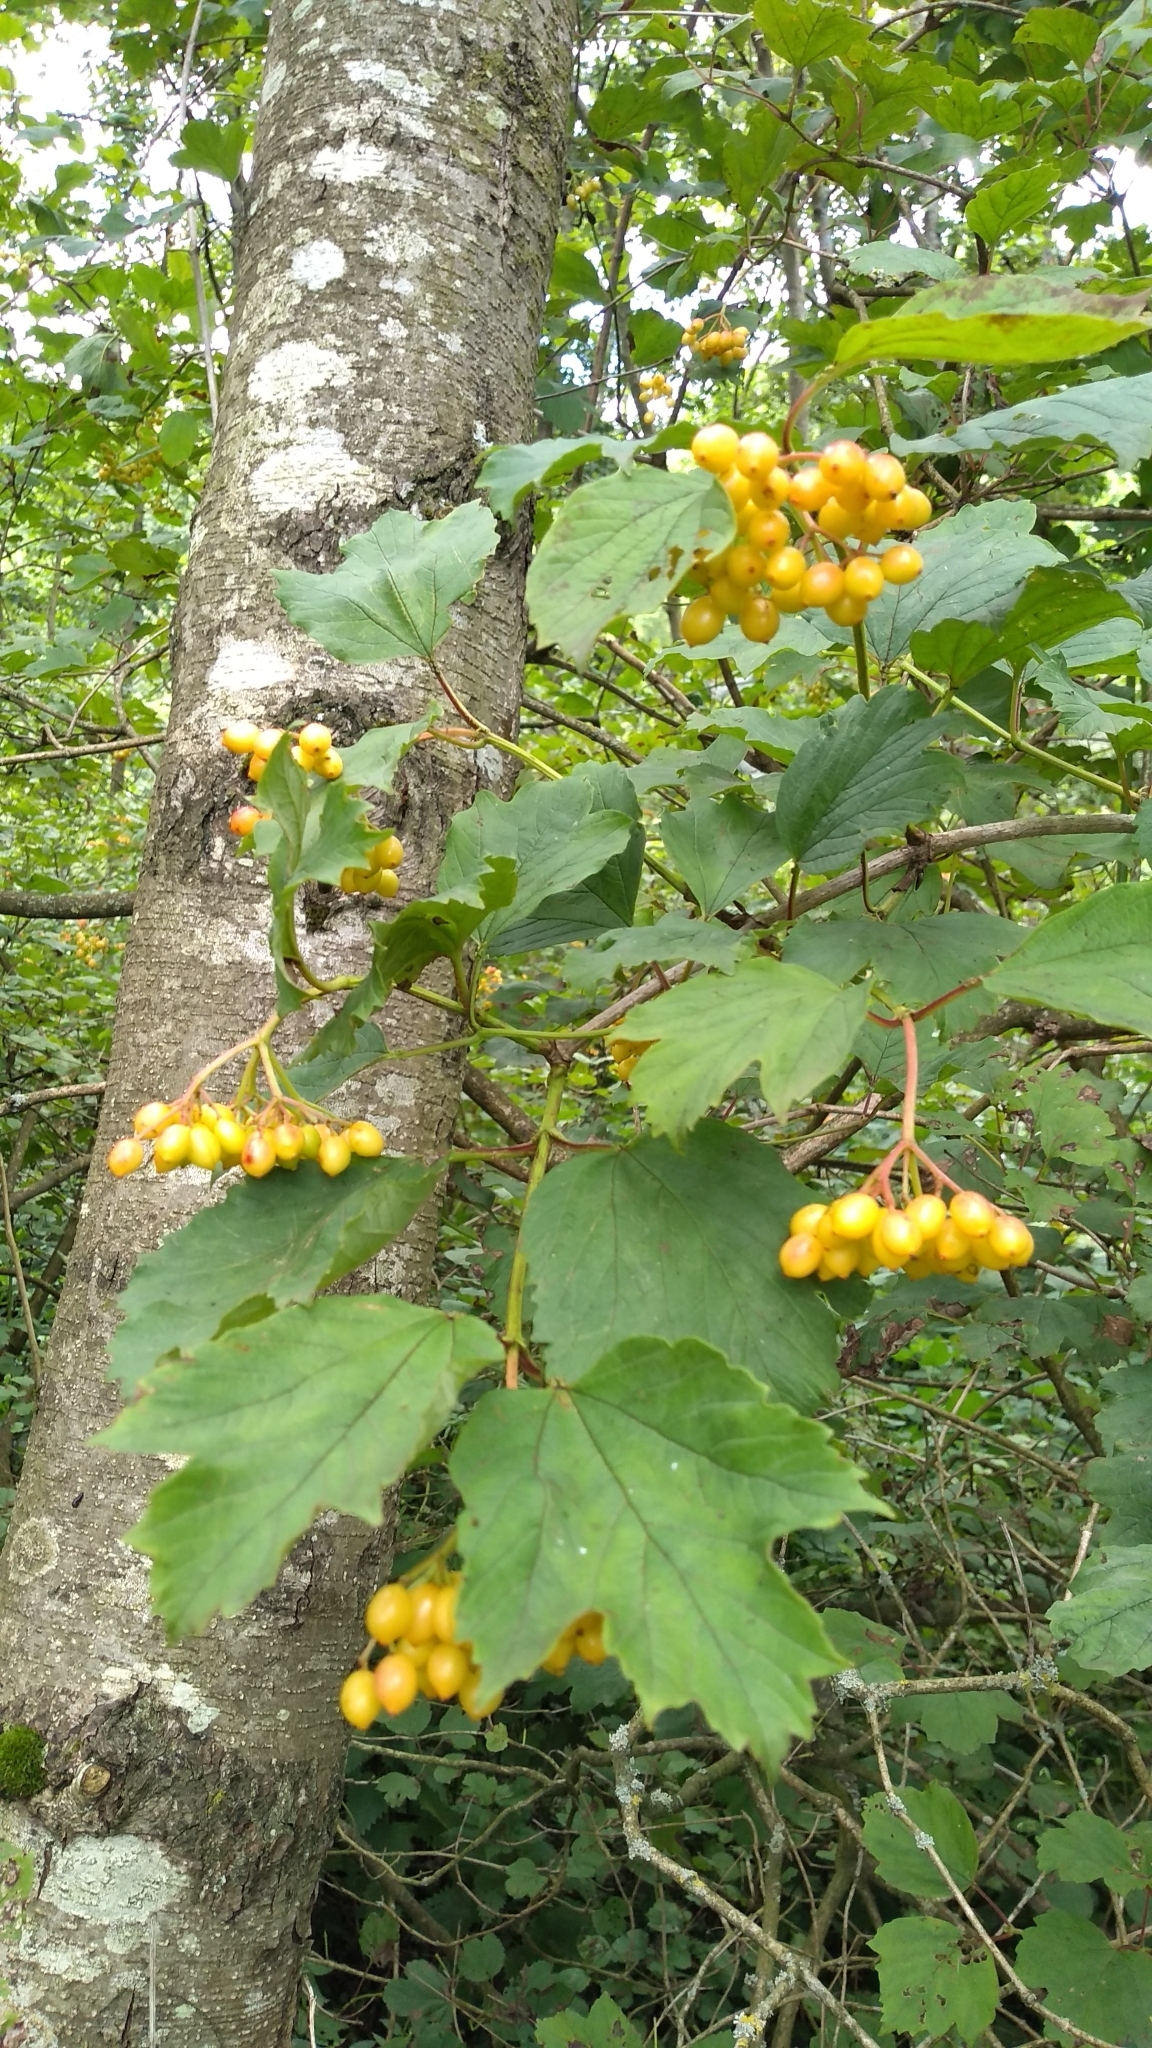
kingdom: Plantae
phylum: Tracheophyta
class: Magnoliopsida
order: Dipsacales
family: Viburnaceae
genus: Viburnum
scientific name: Viburnum opulus
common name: Guelder-rose
